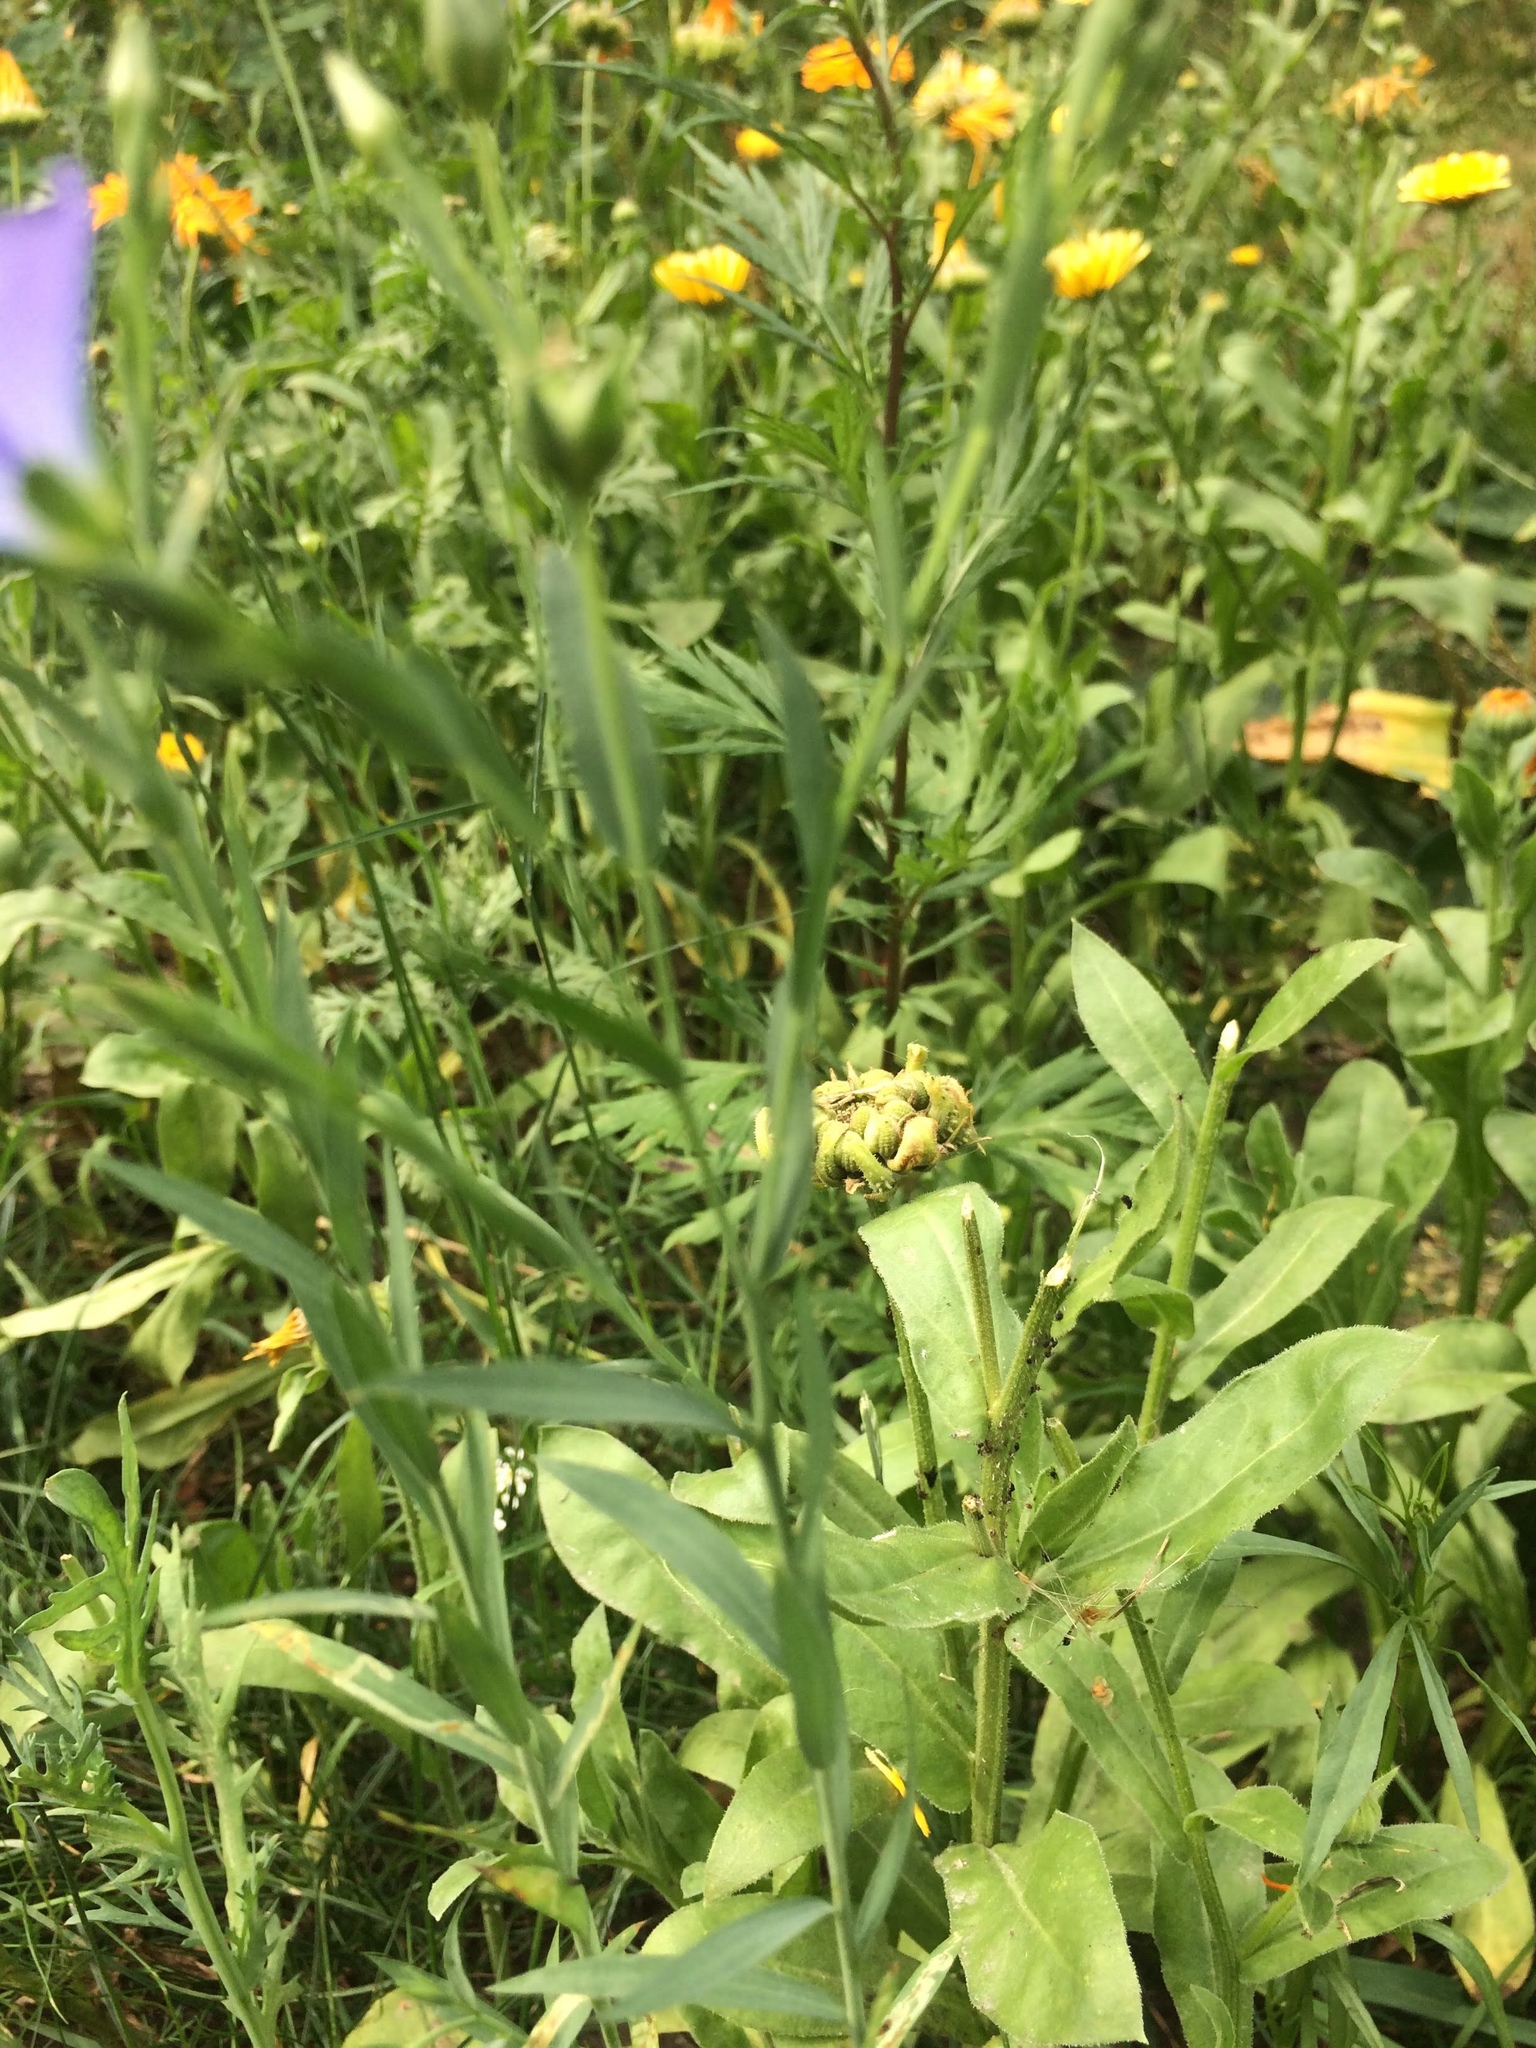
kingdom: Plantae
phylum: Tracheophyta
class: Magnoliopsida
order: Malpighiales
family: Linaceae
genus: Linum
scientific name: Linum usitatissimum
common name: Flax
